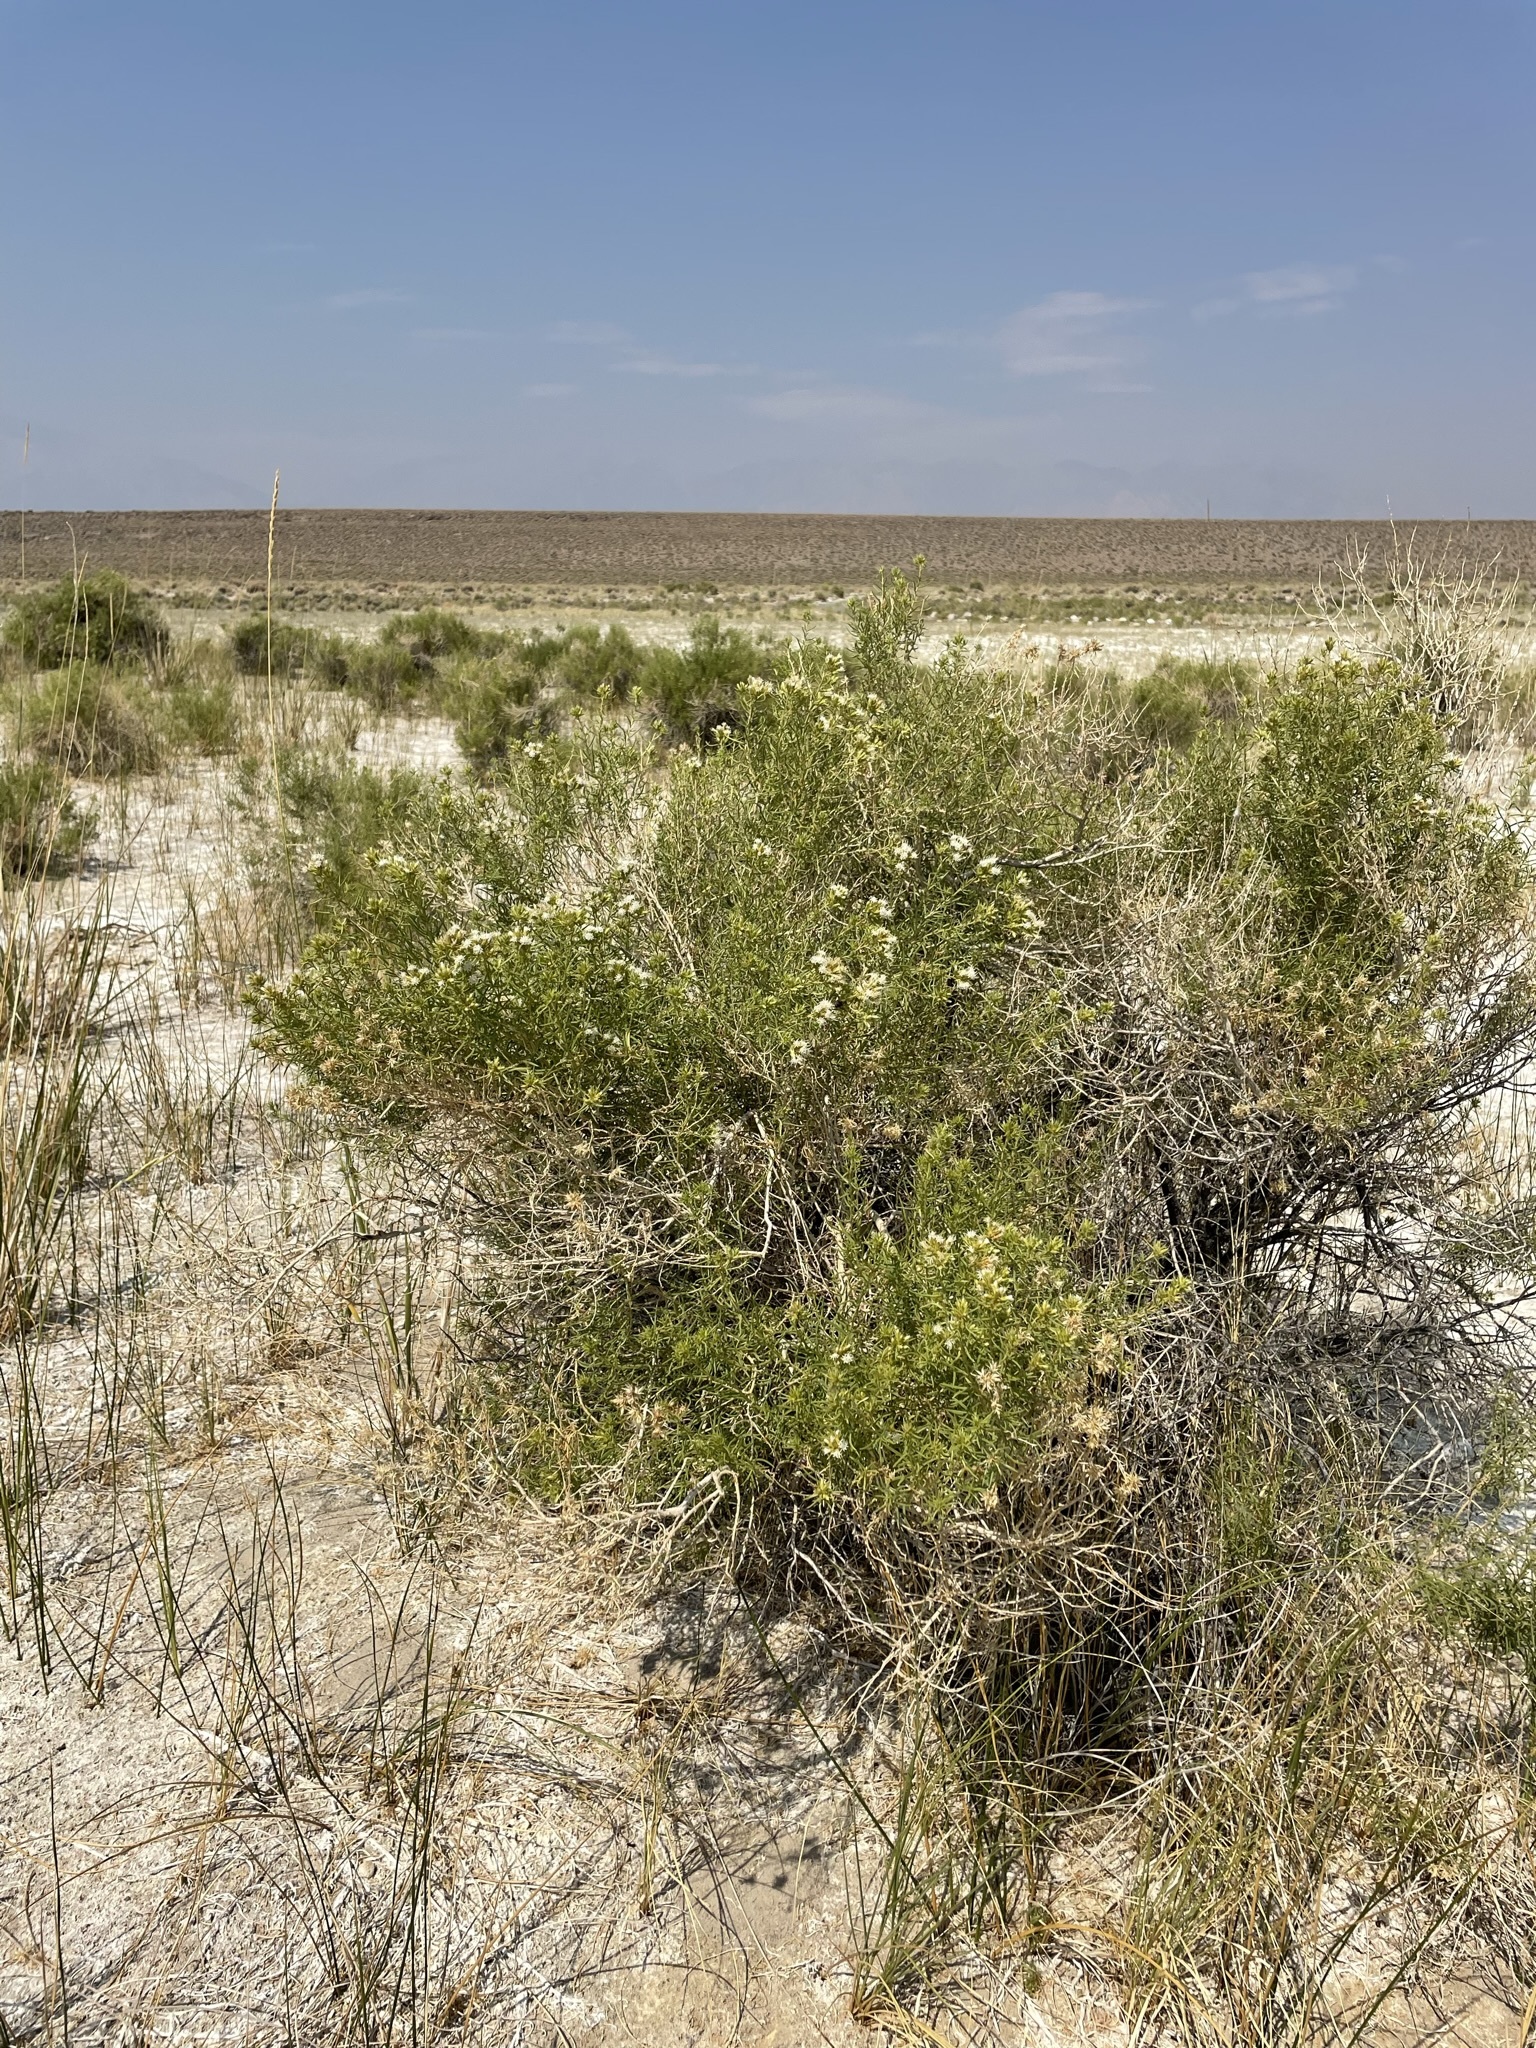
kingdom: Plantae
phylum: Tracheophyta
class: Magnoliopsida
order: Asterales
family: Asteraceae
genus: Ericameria
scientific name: Ericameria albida
